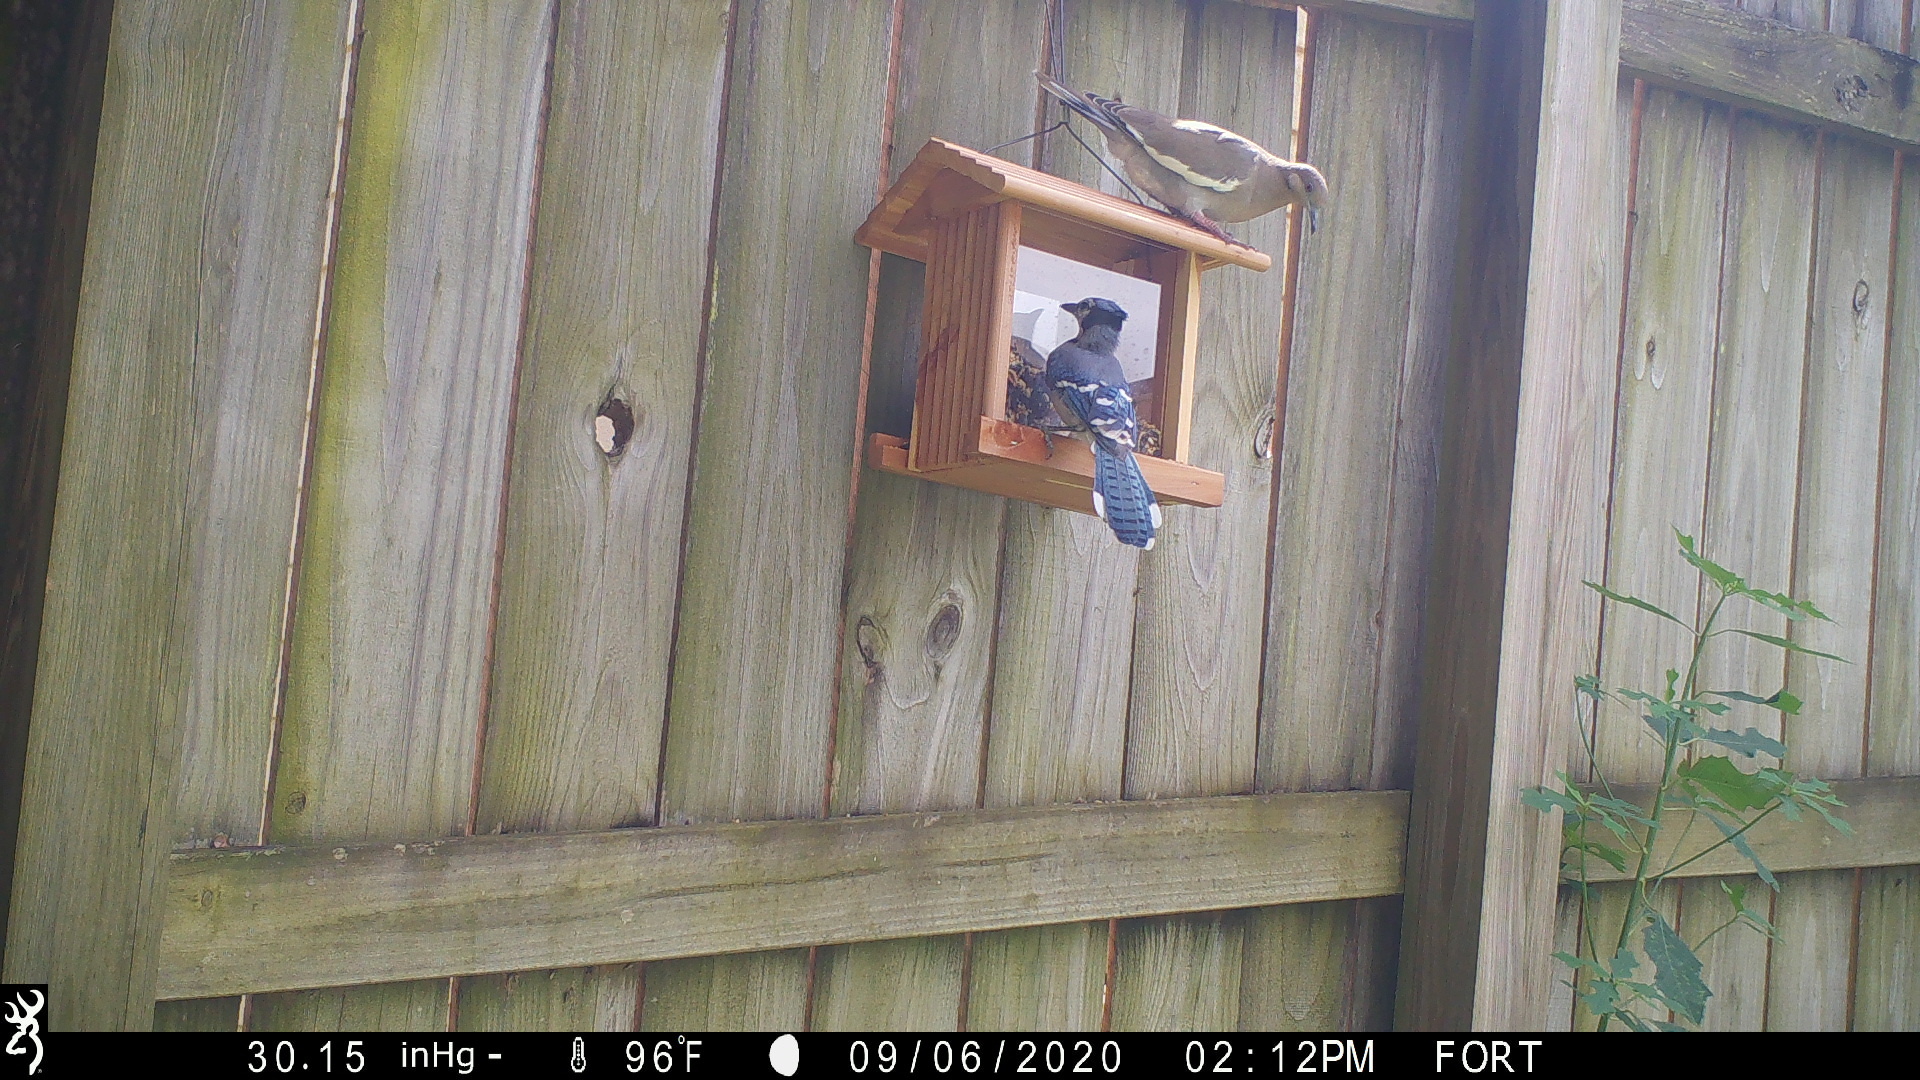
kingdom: Animalia
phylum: Chordata
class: Aves
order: Columbiformes
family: Columbidae
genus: Zenaida
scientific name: Zenaida asiatica
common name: White-winged dove
